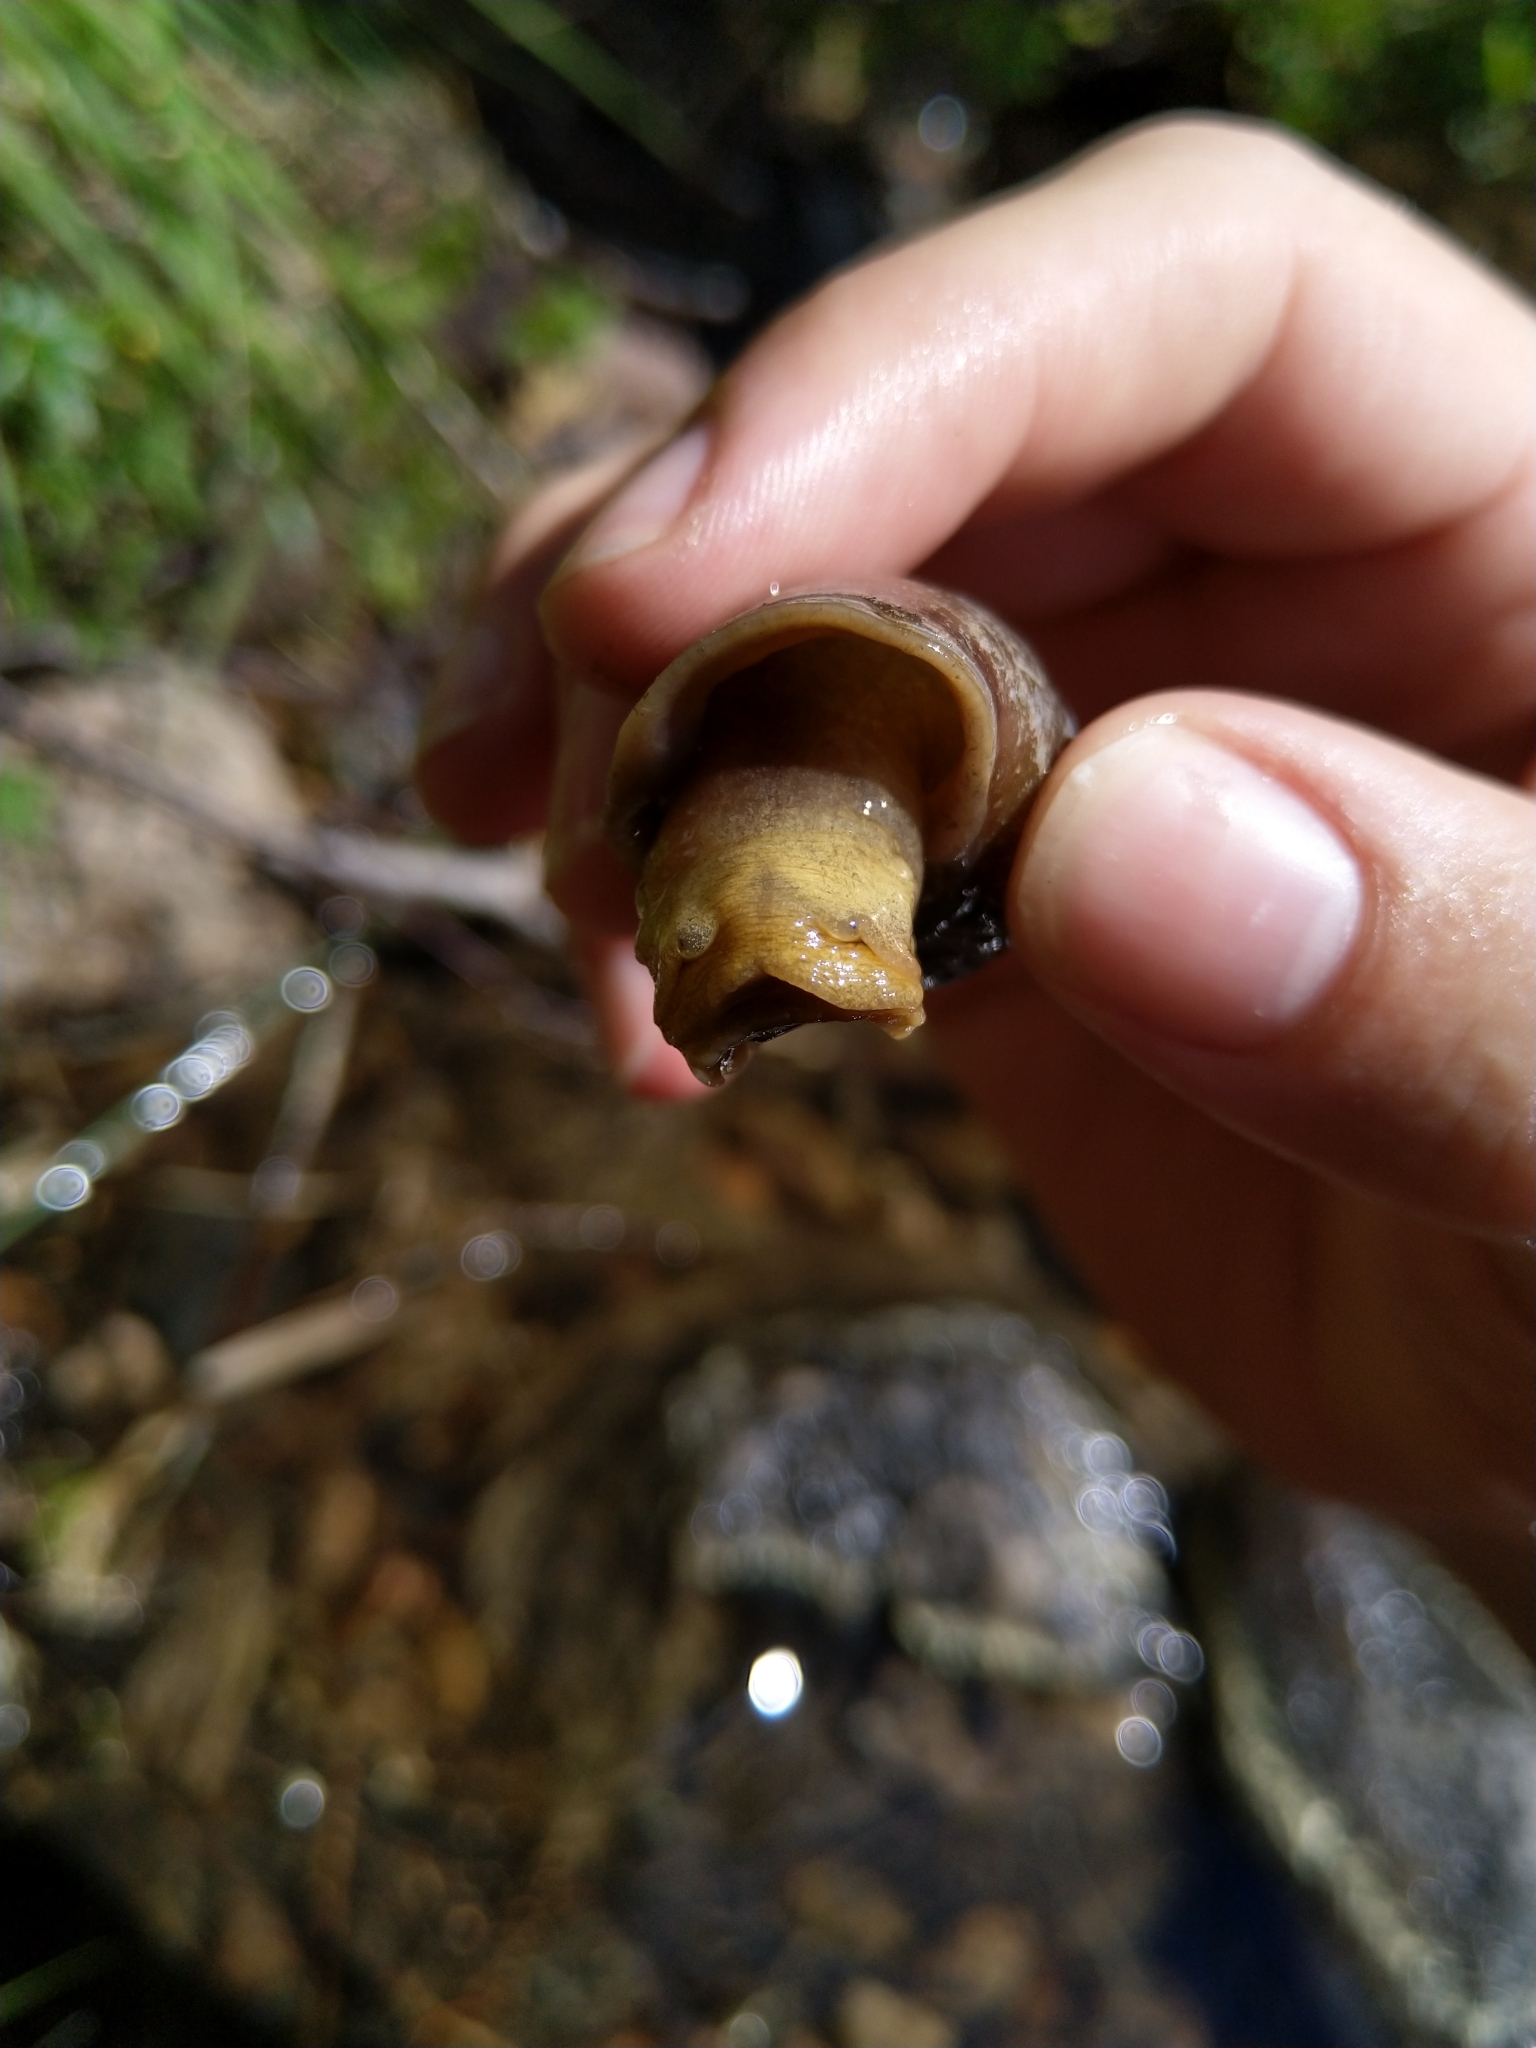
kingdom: Animalia
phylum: Mollusca
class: Gastropoda
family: Lymnaeidae
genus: Lymnaea
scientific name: Lymnaea stagnalis
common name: Great pond snail
